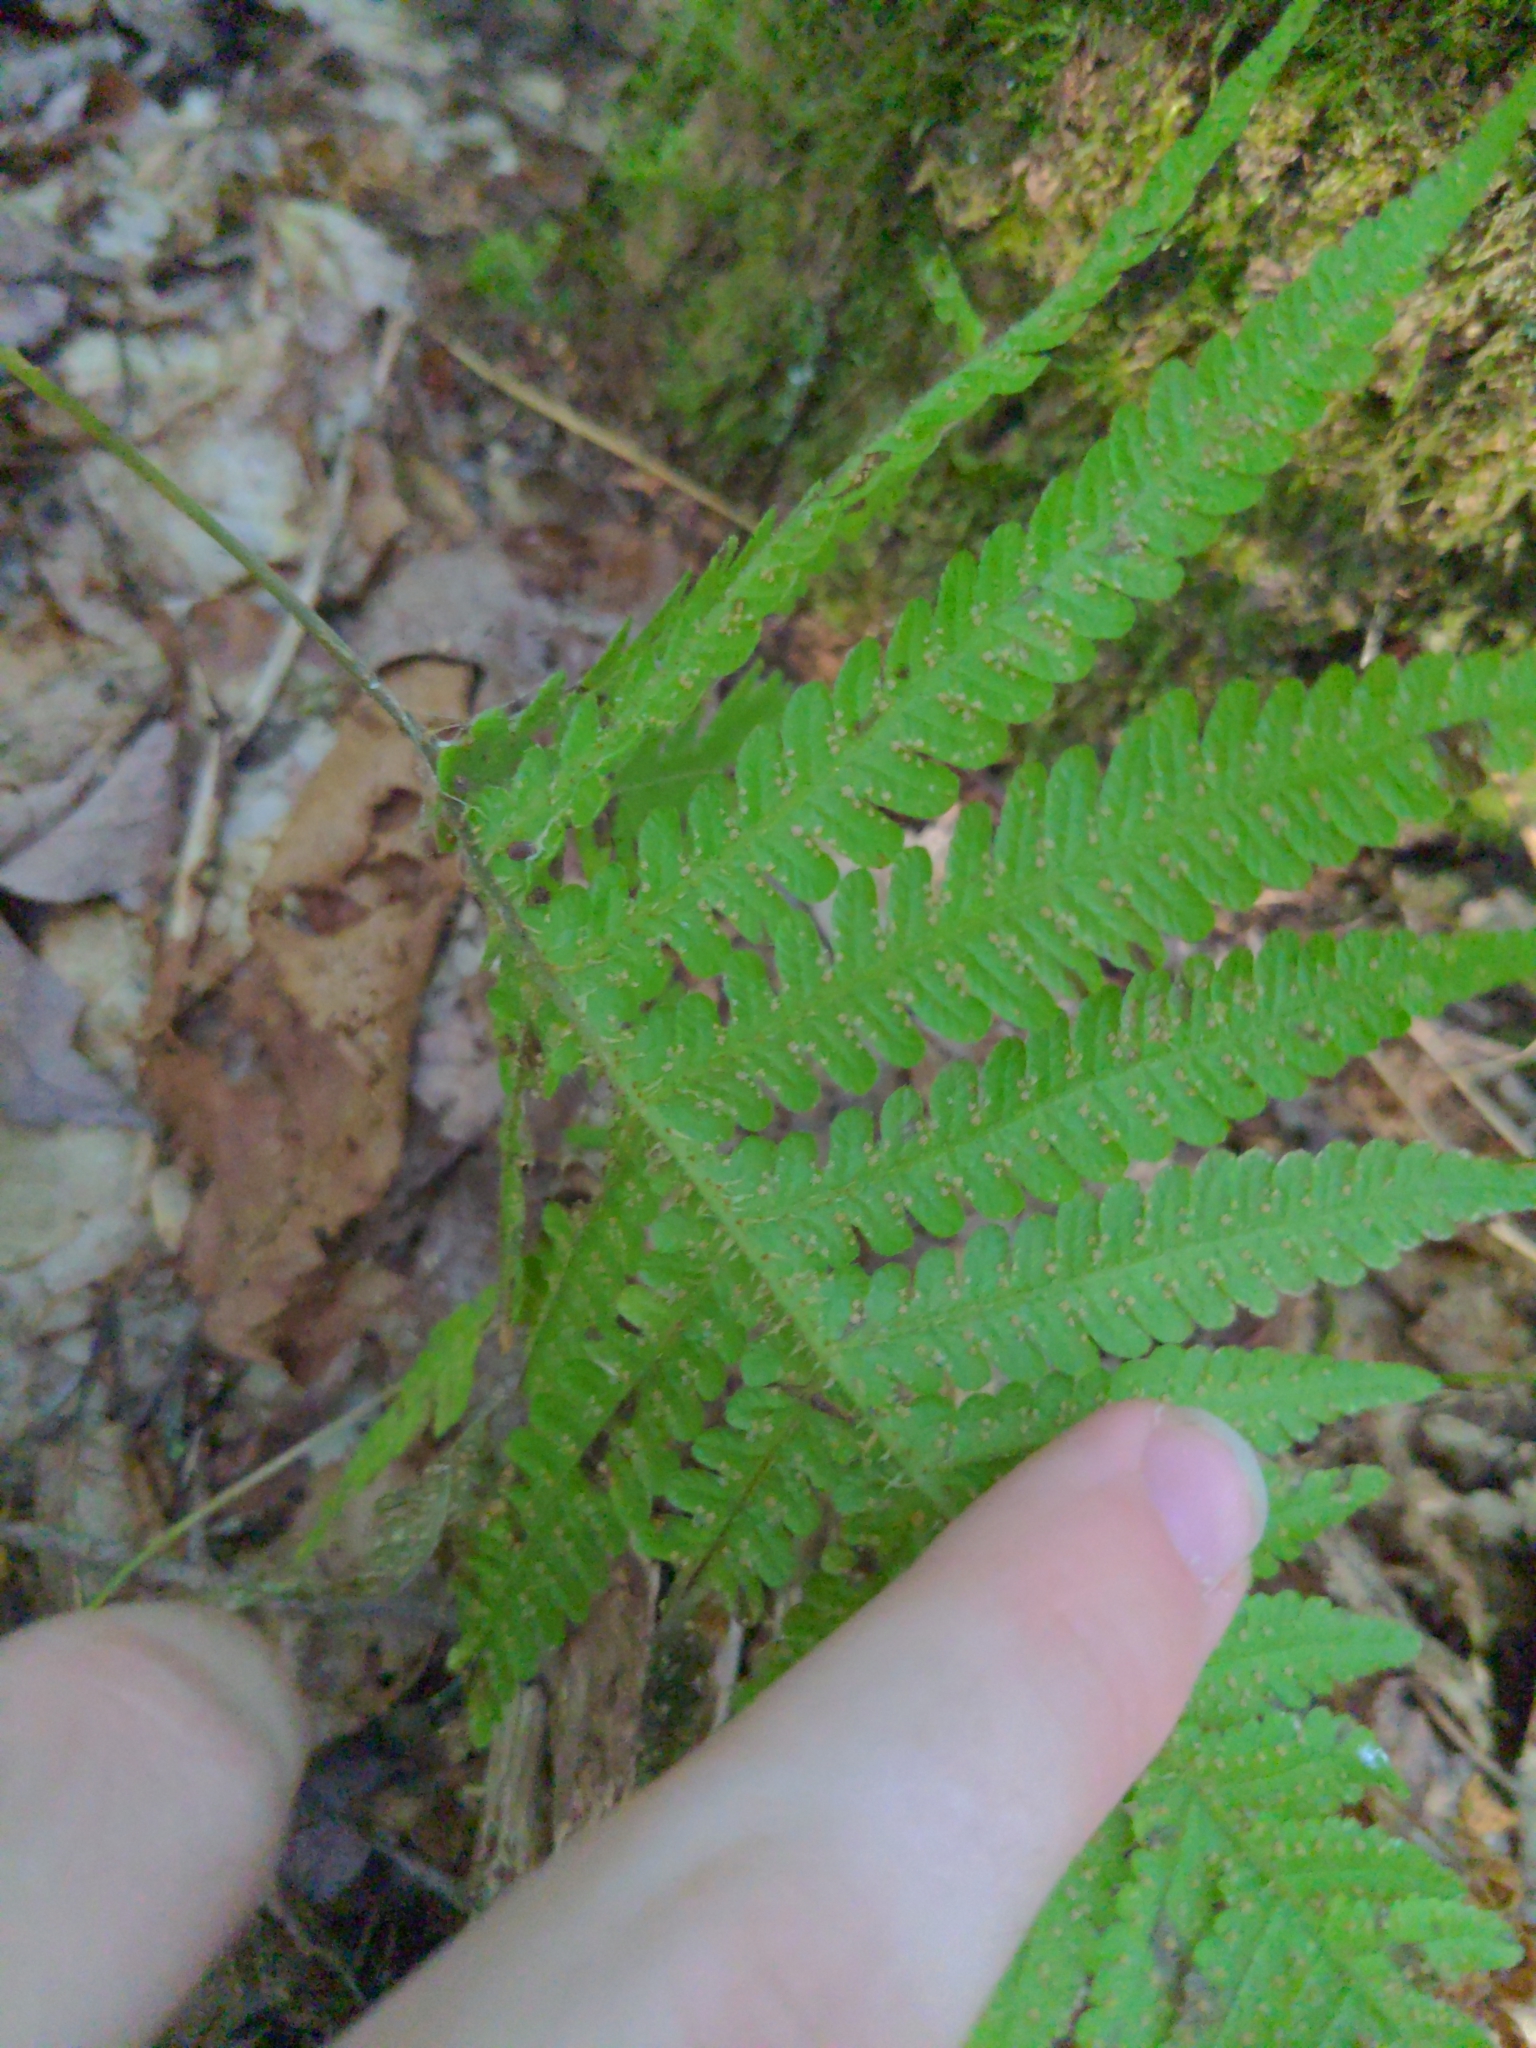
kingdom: Plantae
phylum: Tracheophyta
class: Polypodiopsida
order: Polypodiales
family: Thelypteridaceae
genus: Phegopteris
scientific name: Phegopteris connectilis
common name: Beech fern
